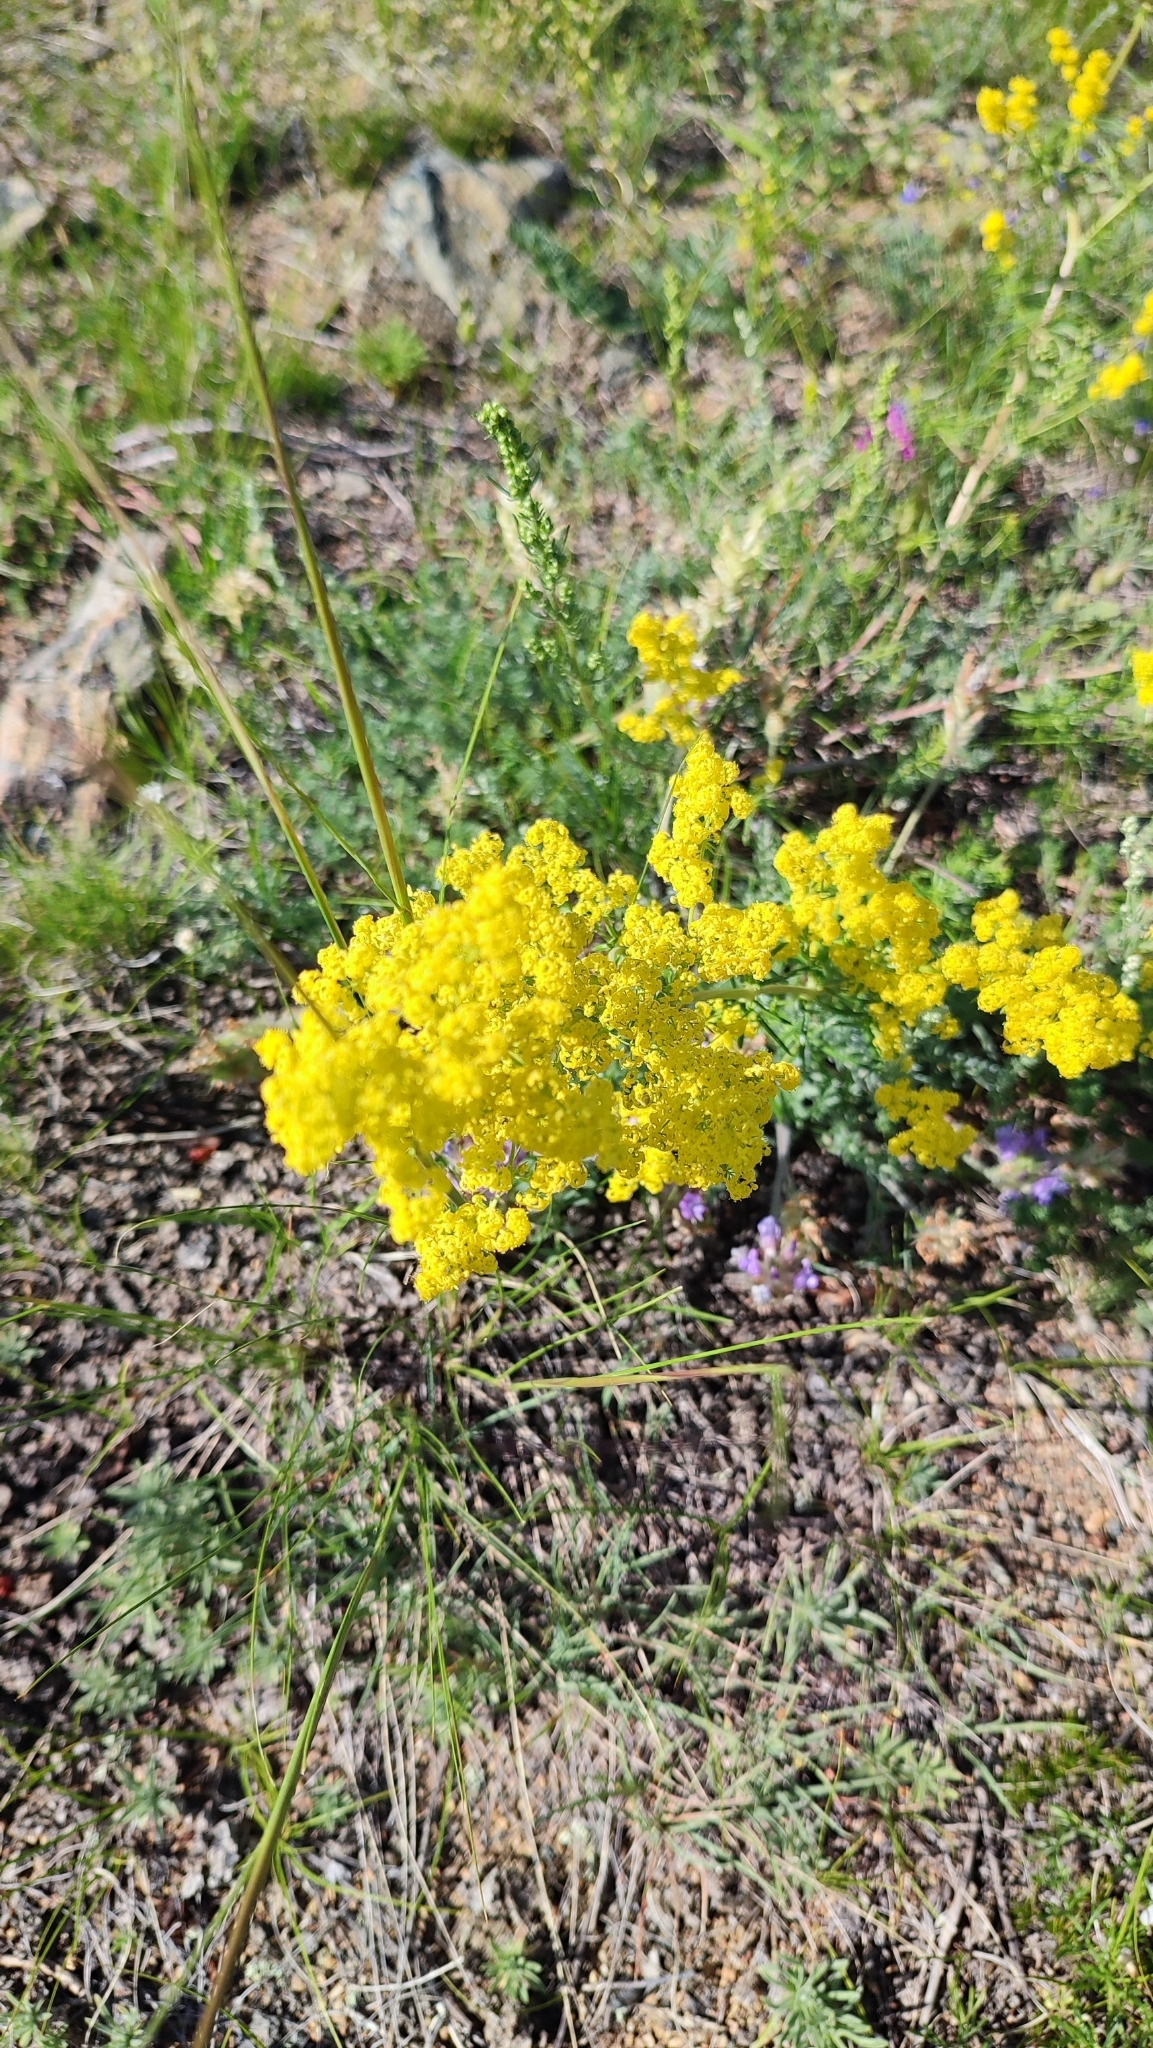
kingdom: Plantae
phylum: Tracheophyta
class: Magnoliopsida
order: Gentianales
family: Rubiaceae
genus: Galium
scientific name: Galium verum
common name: Lady's bedstraw
